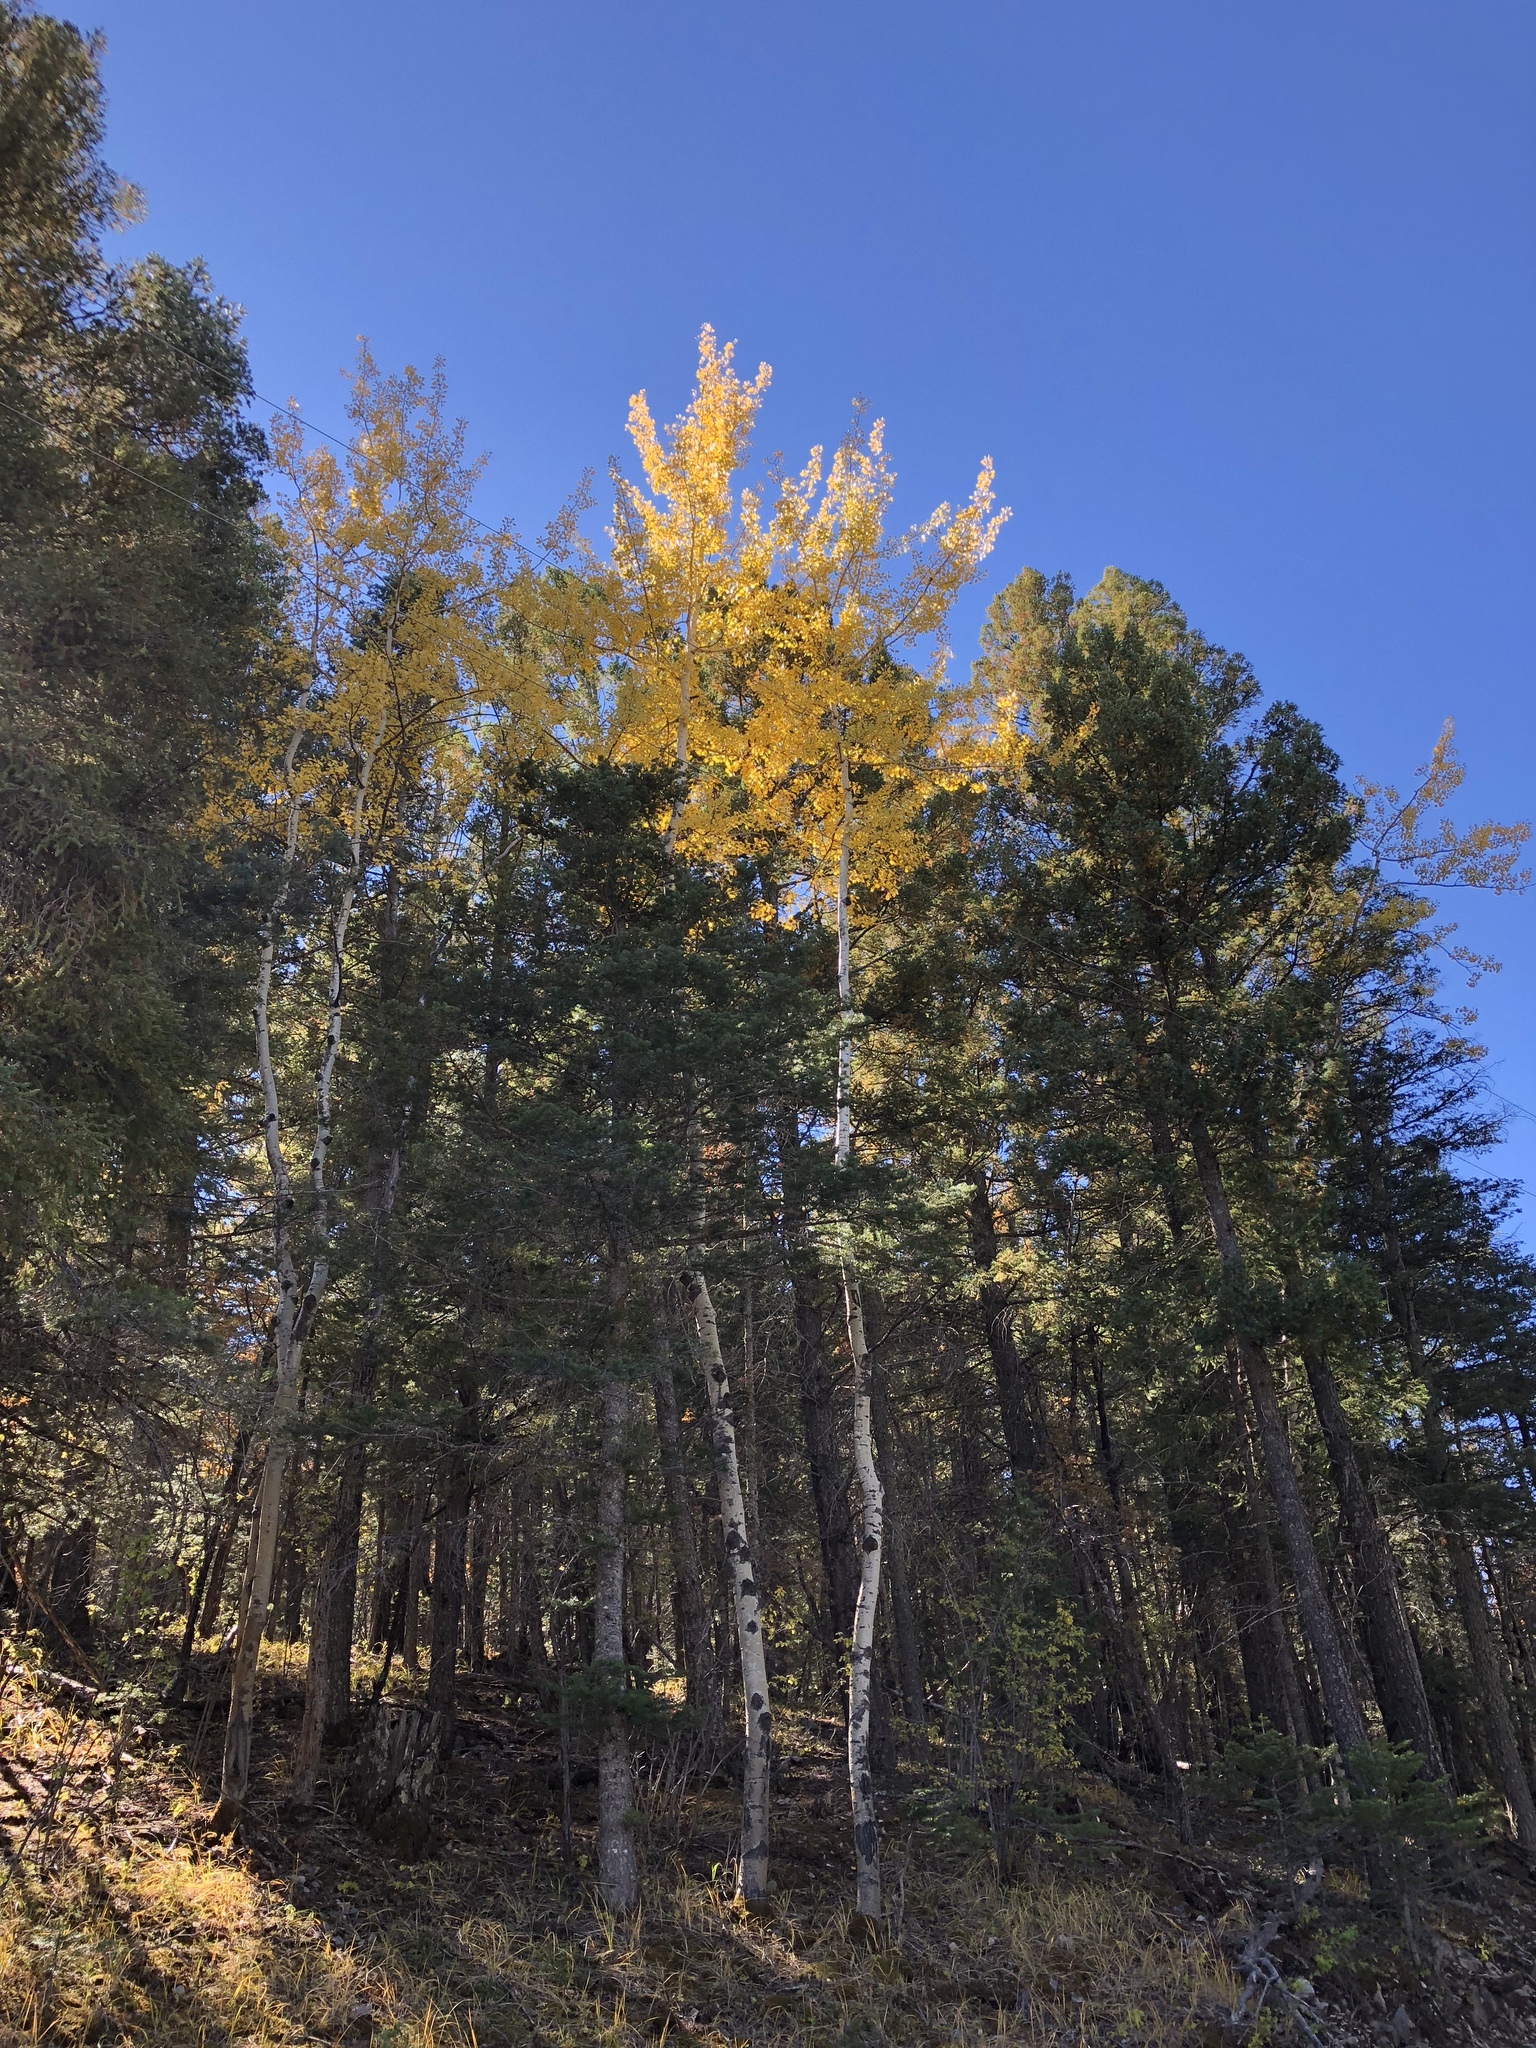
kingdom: Plantae
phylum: Tracheophyta
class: Magnoliopsida
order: Malpighiales
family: Salicaceae
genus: Populus
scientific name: Populus tremuloides
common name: Quaking aspen
